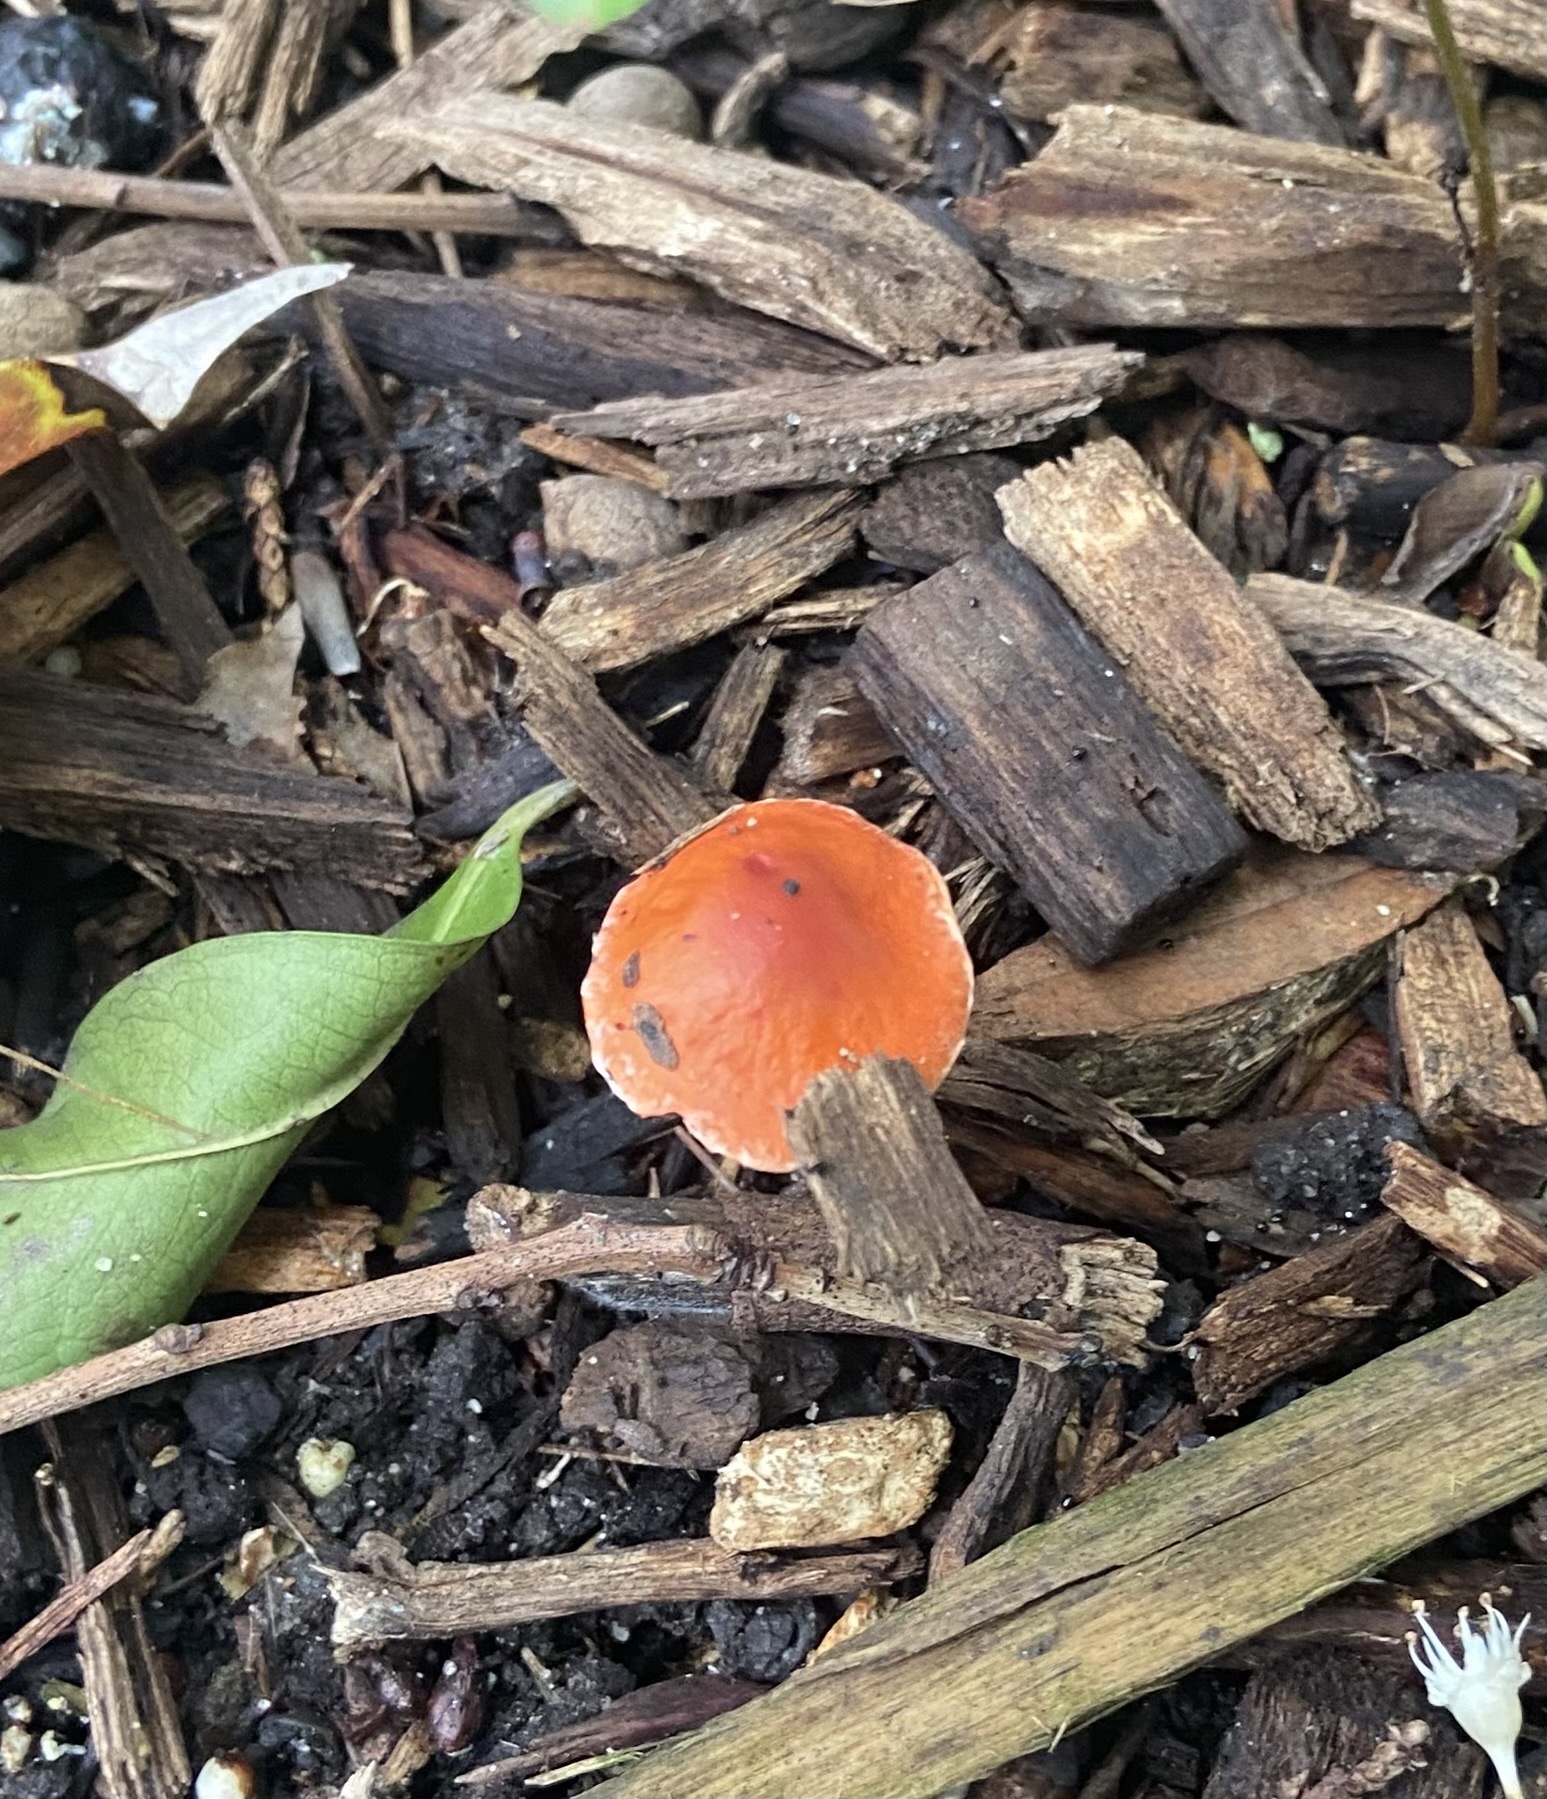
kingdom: Fungi
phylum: Basidiomycota
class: Agaricomycetes
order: Agaricales
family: Strophariaceae
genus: Leratiomyces
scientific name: Leratiomyces ceres
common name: Redlead roundhead
